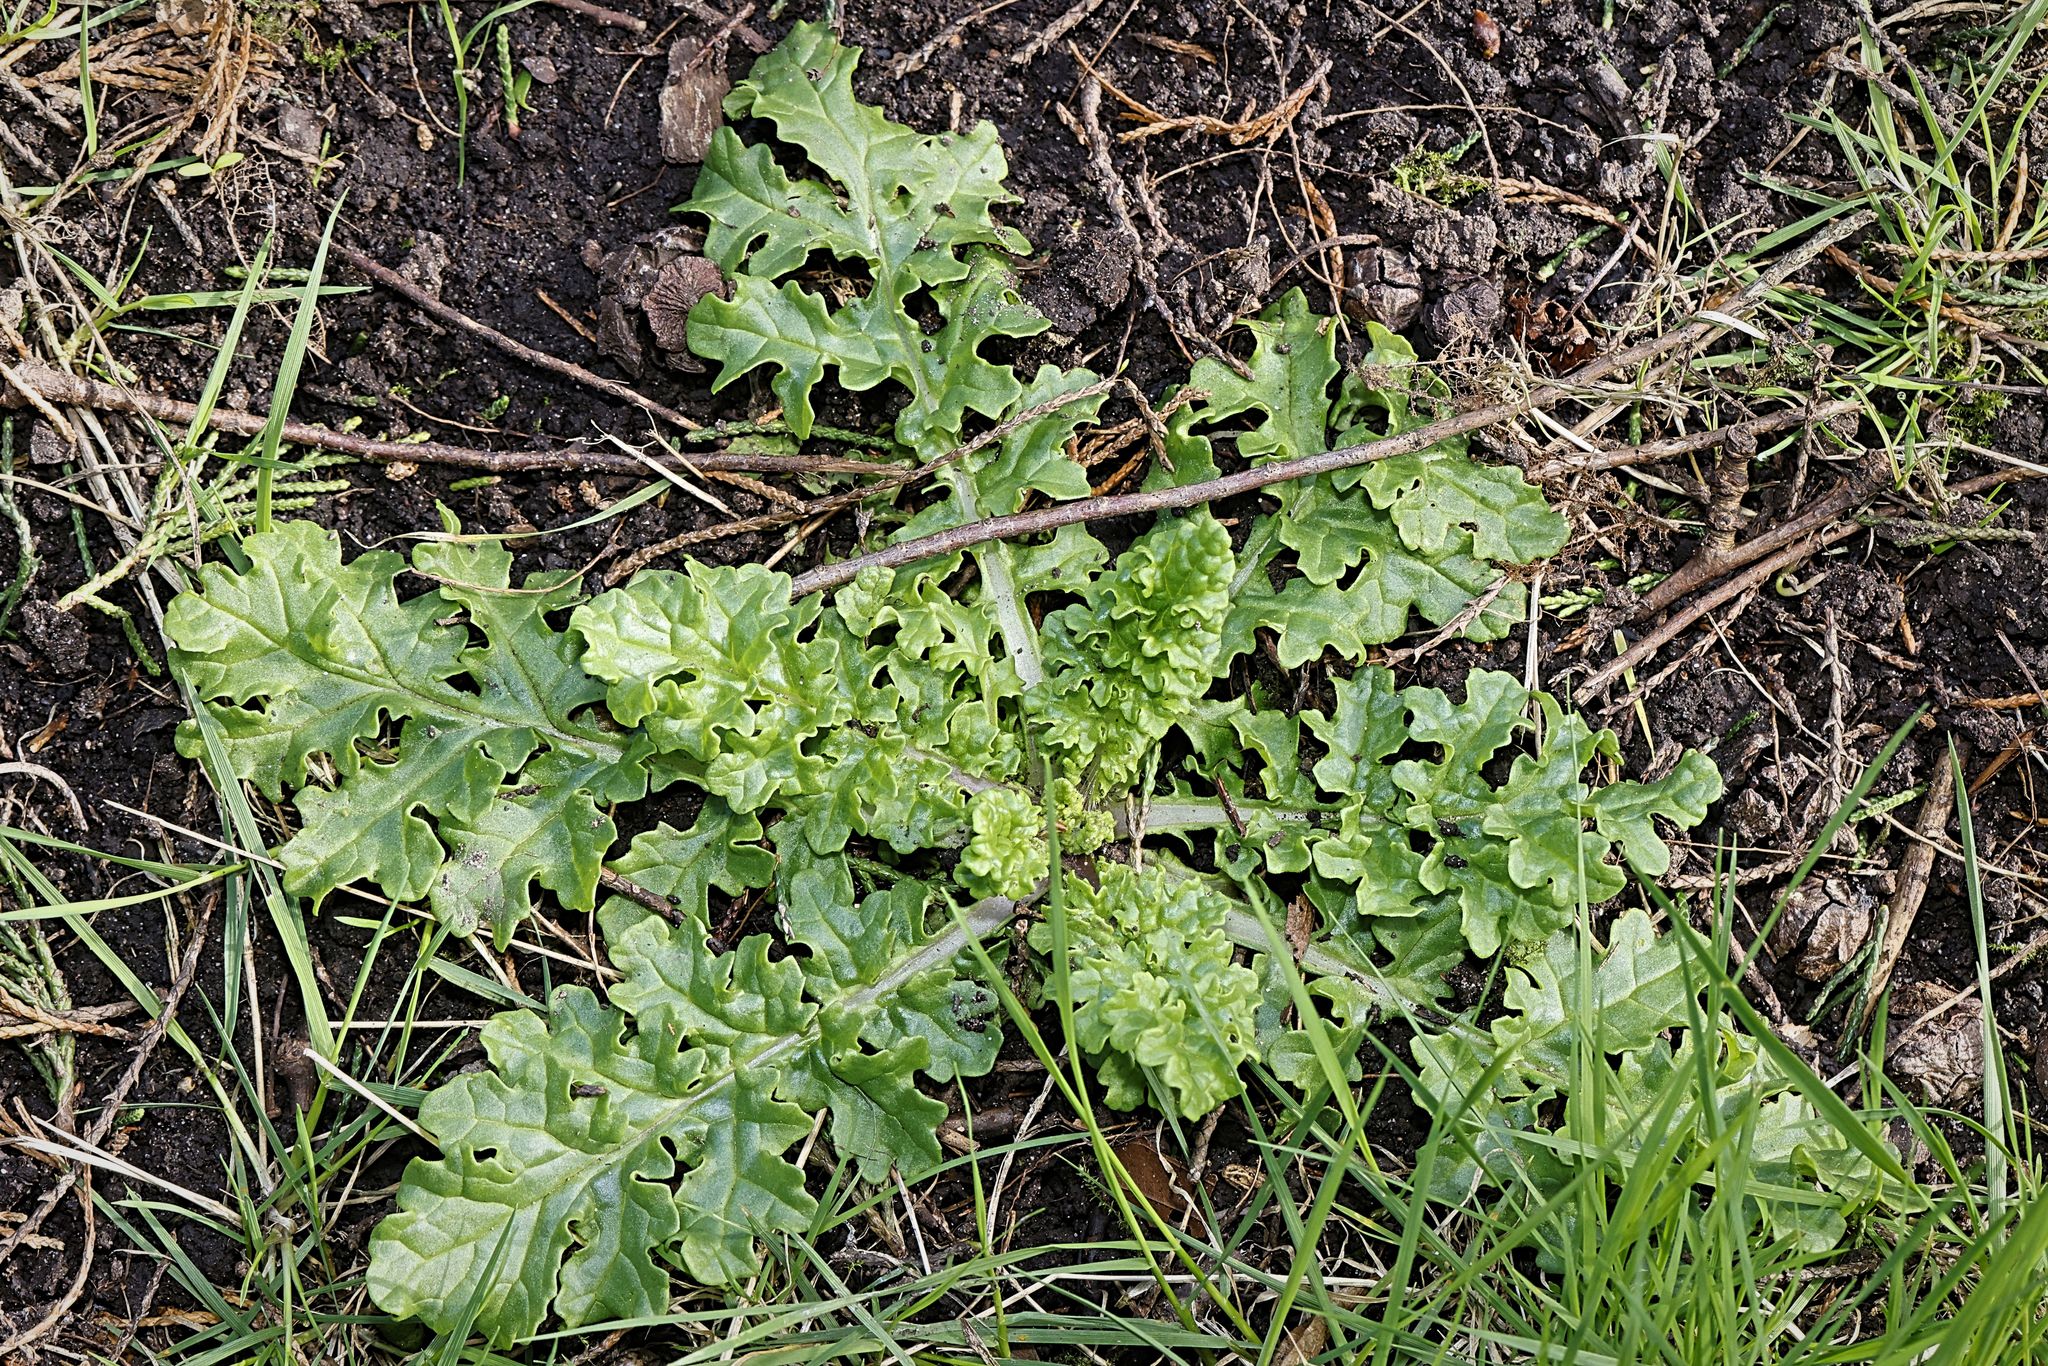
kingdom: Plantae
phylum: Tracheophyta
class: Magnoliopsida
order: Asterales
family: Asteraceae
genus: Jacobaea
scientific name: Jacobaea vulgaris
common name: Stinking willie
